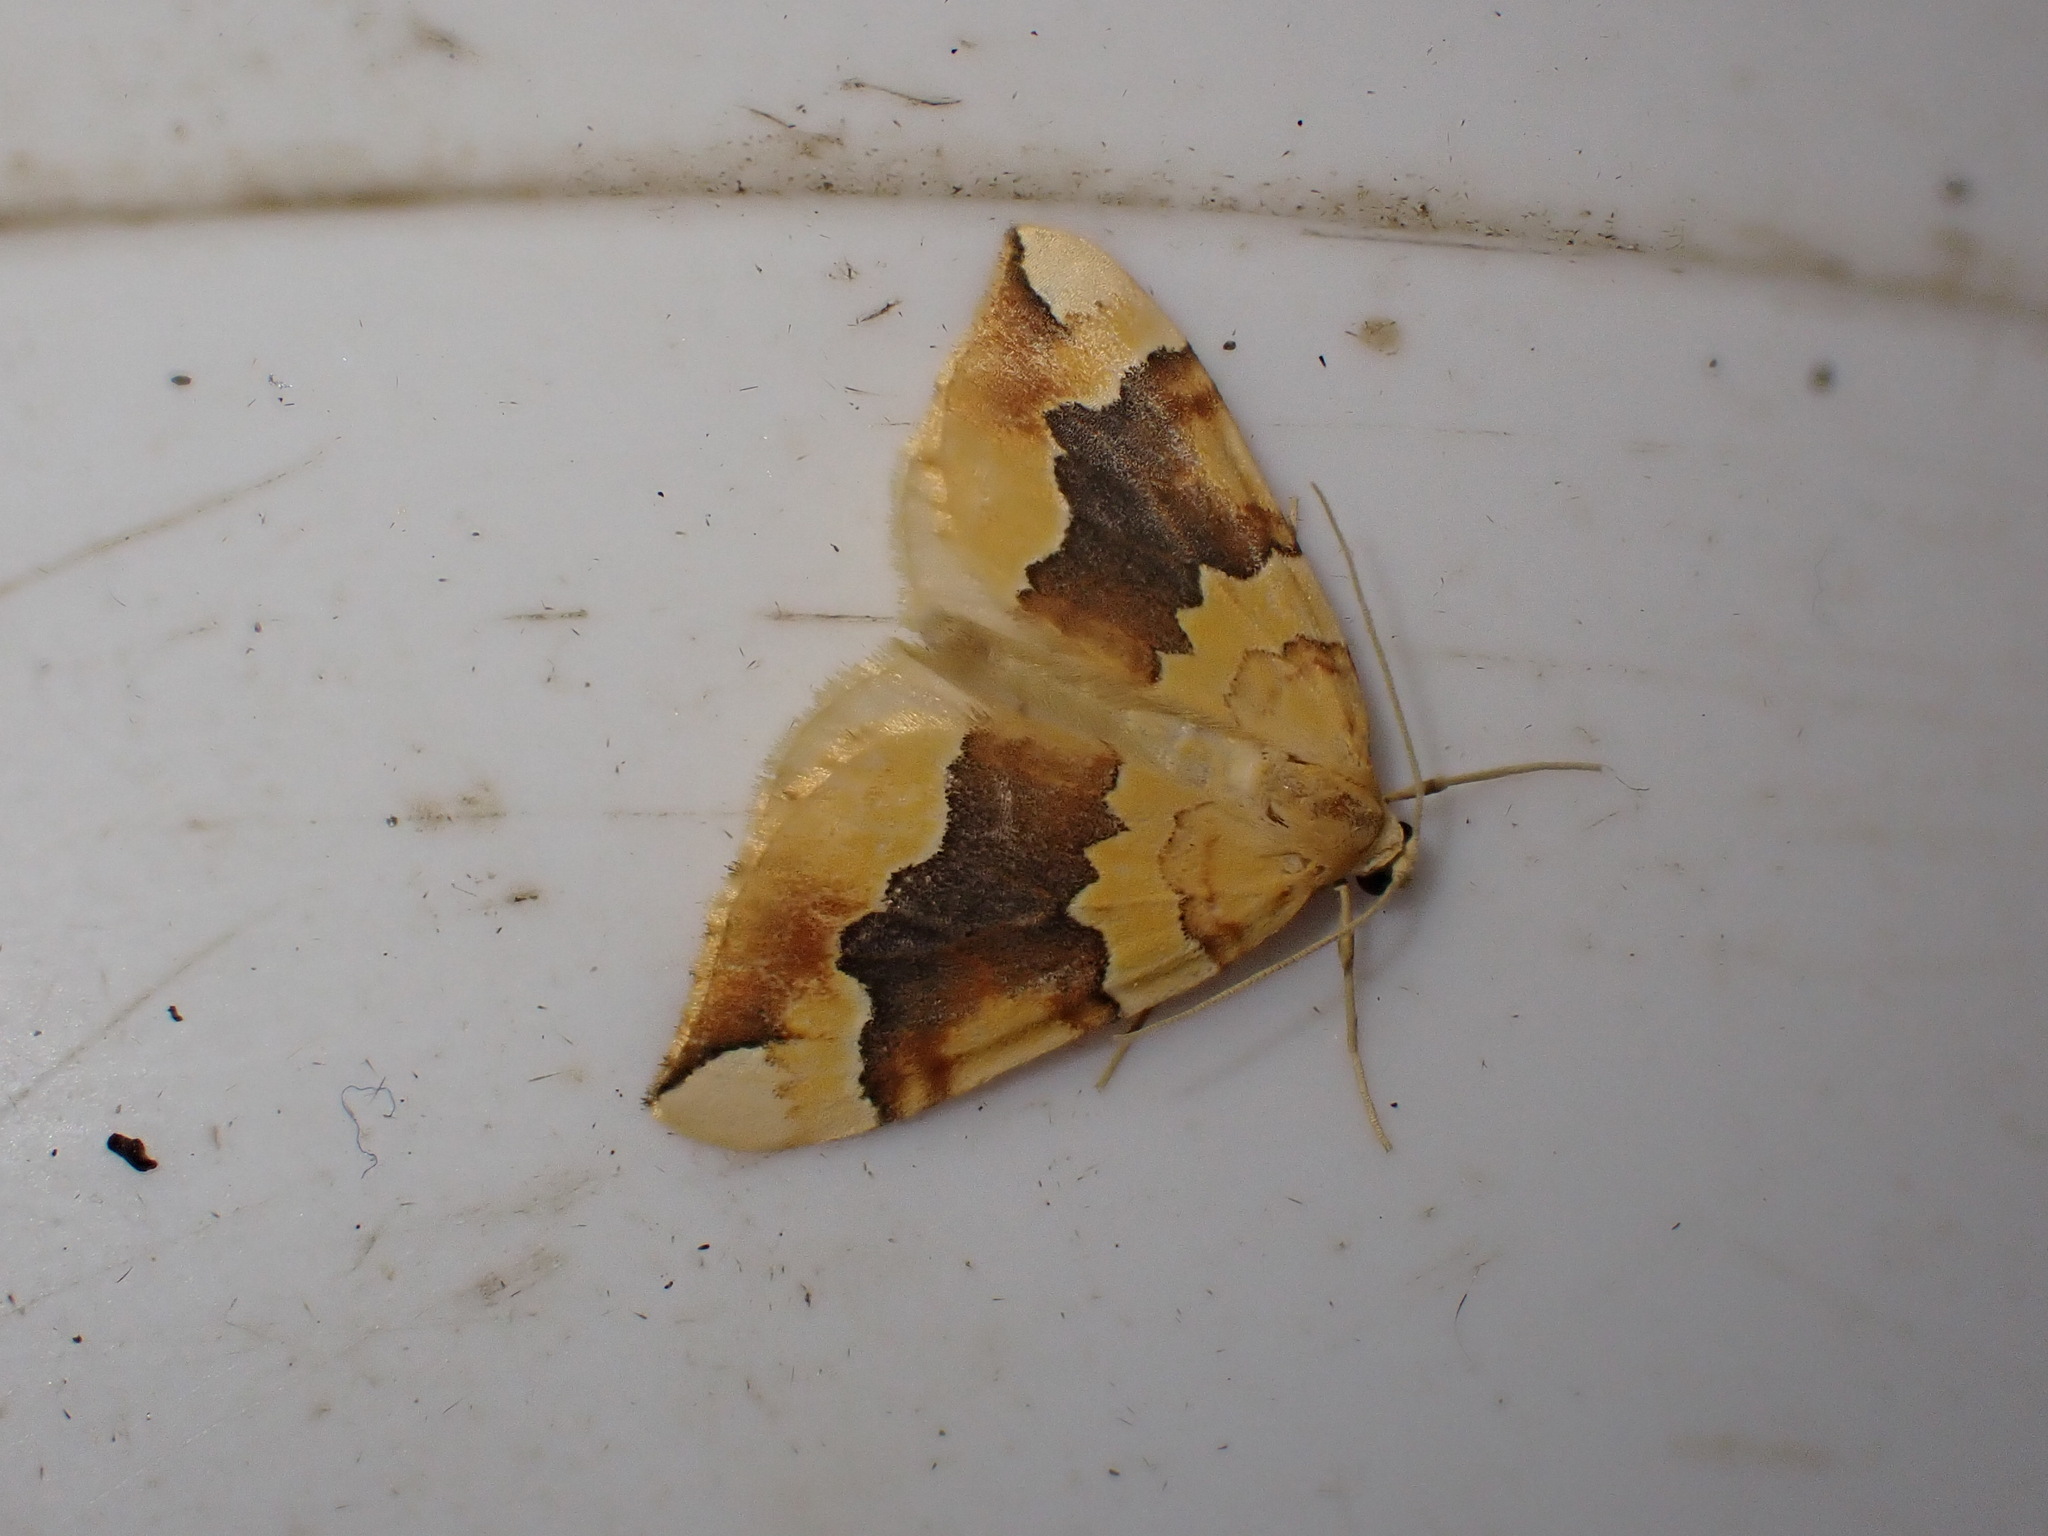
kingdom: Animalia
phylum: Arthropoda
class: Insecta
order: Lepidoptera
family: Geometridae
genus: Cidaria
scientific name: Cidaria fulvata
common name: Barred yellow
